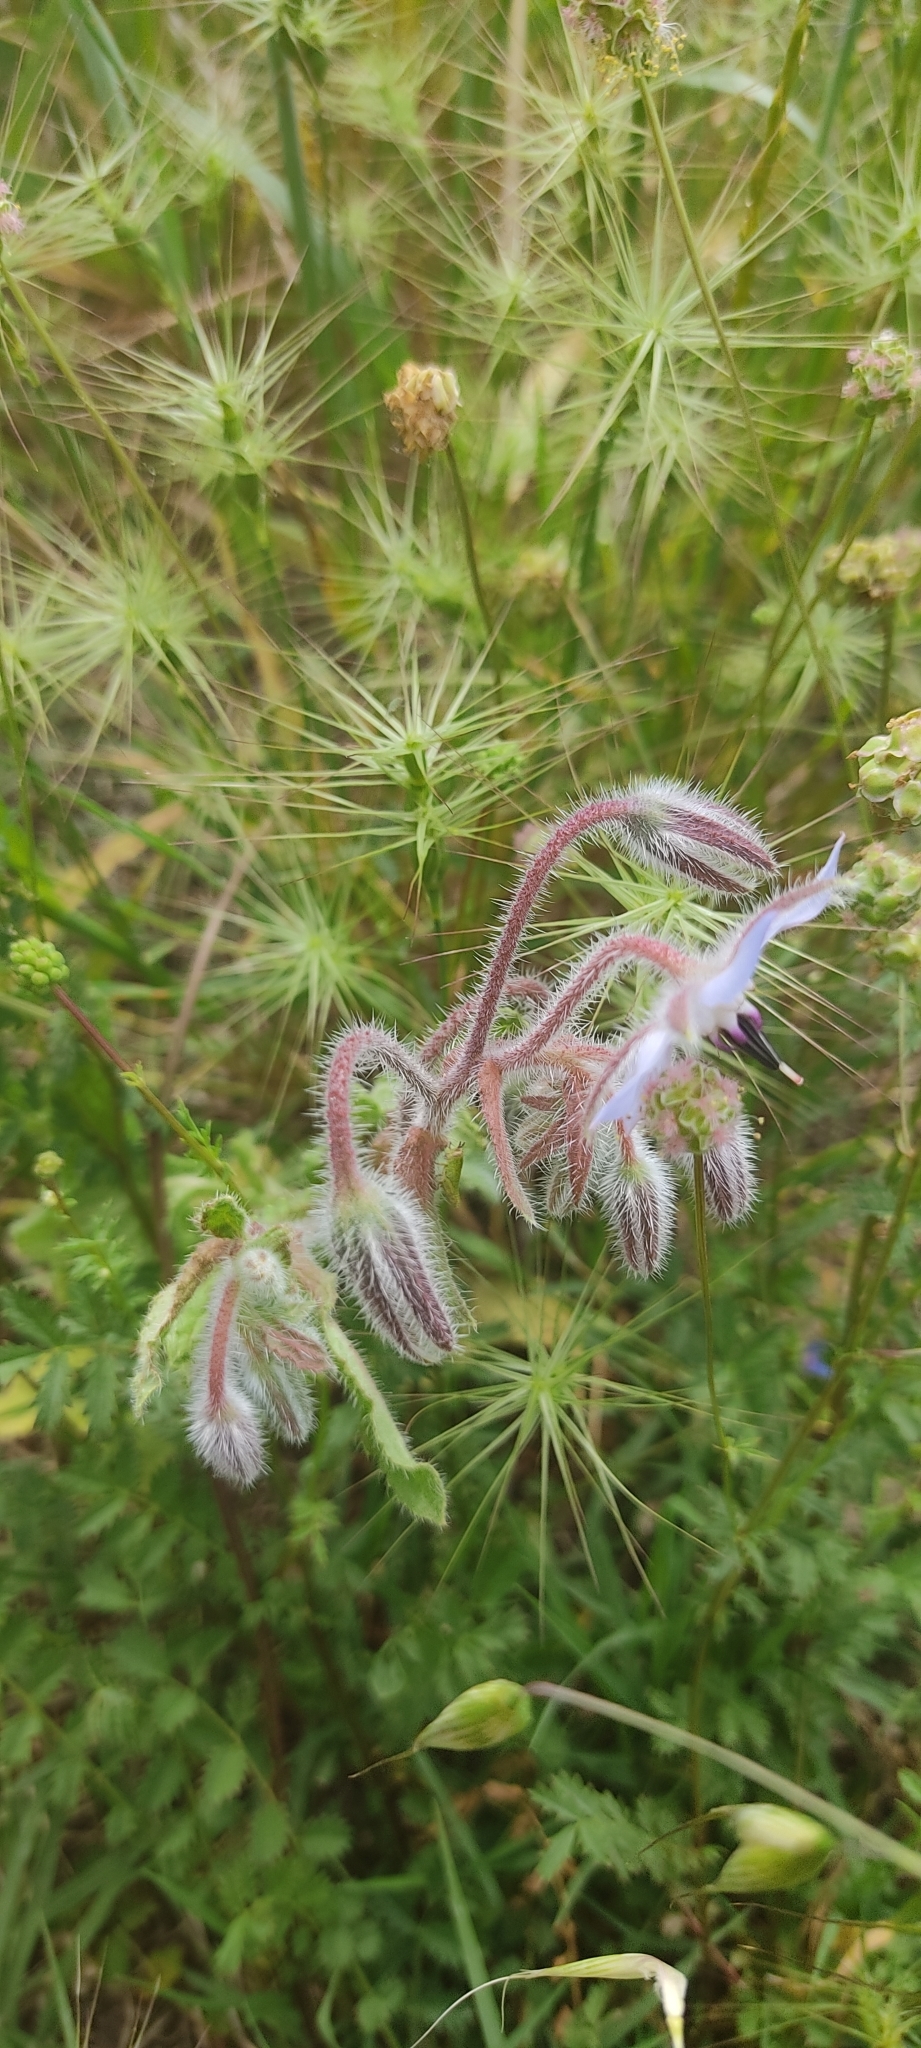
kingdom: Plantae
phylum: Tracheophyta
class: Magnoliopsida
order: Boraginales
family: Boraginaceae
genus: Borago
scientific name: Borago officinalis
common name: Borage
